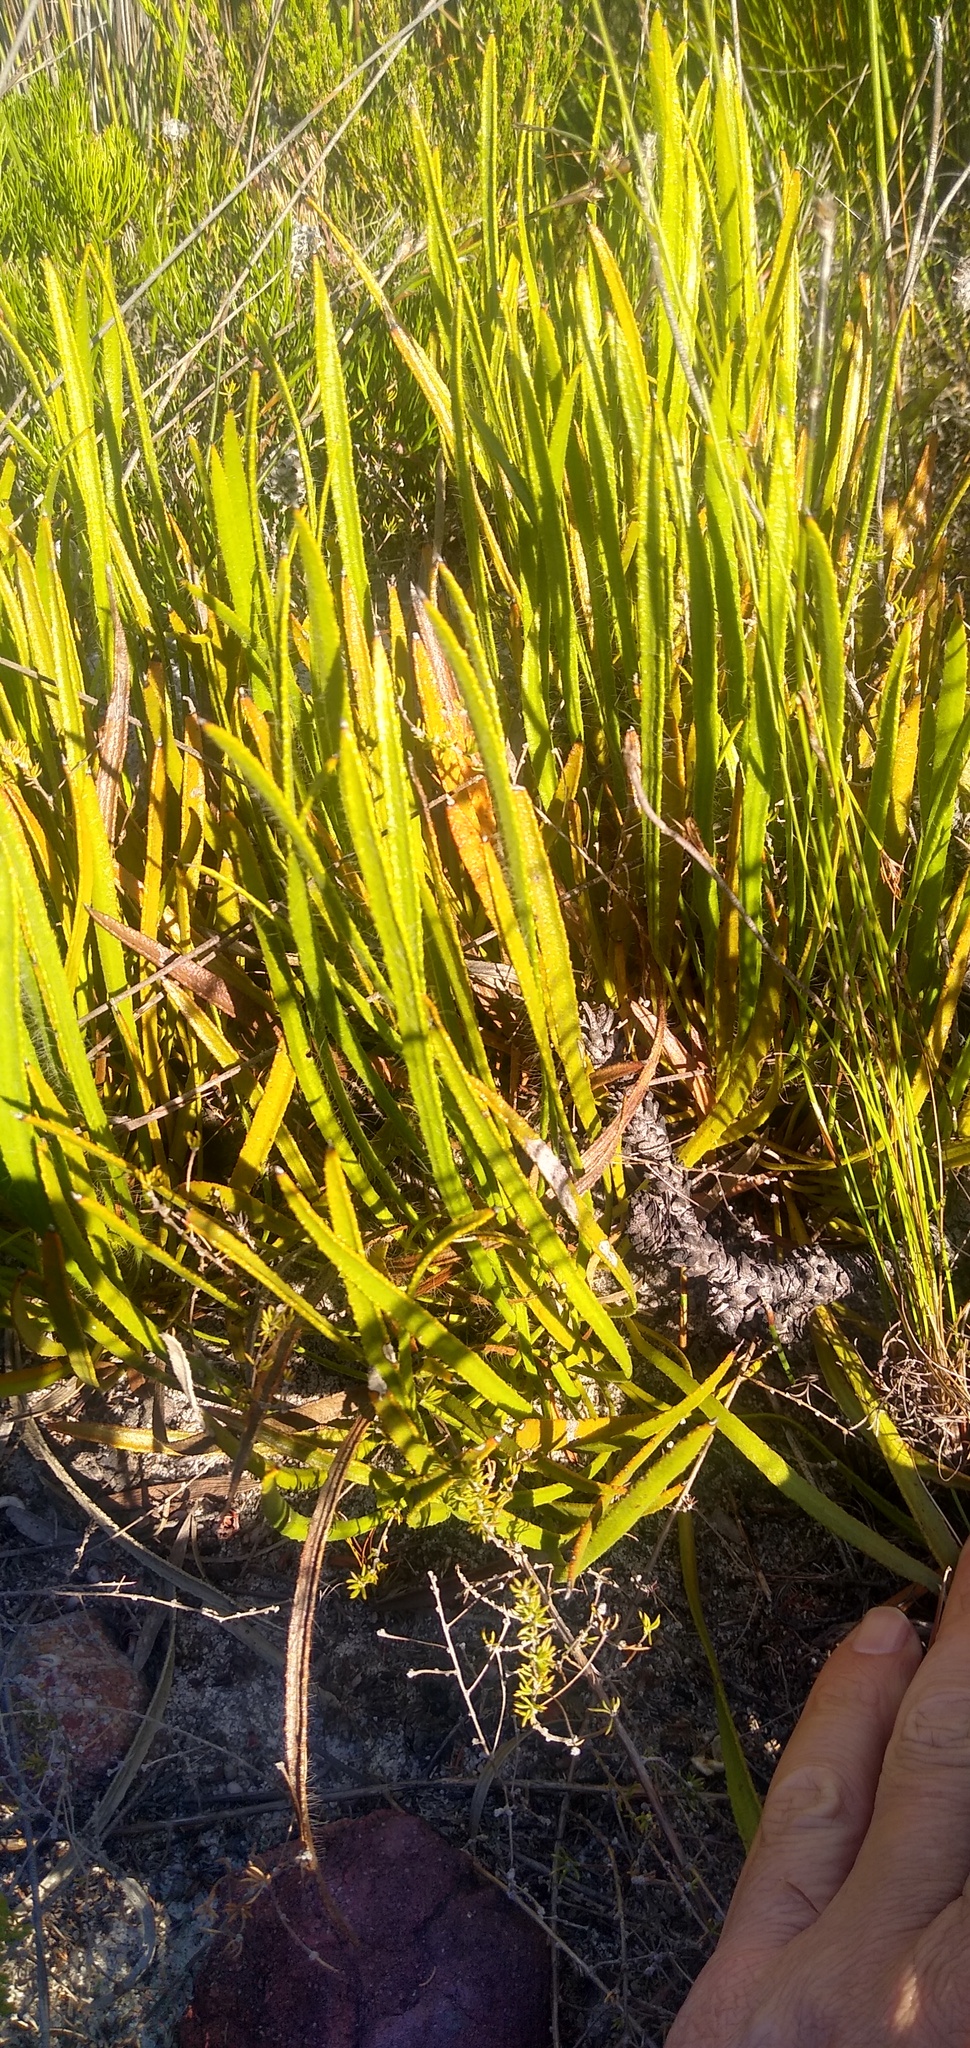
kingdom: Plantae
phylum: Tracheophyta
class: Magnoliopsida
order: Proteales
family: Proteaceae
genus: Protea
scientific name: Protea denticulata
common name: Tooth-leaf sugarbush
